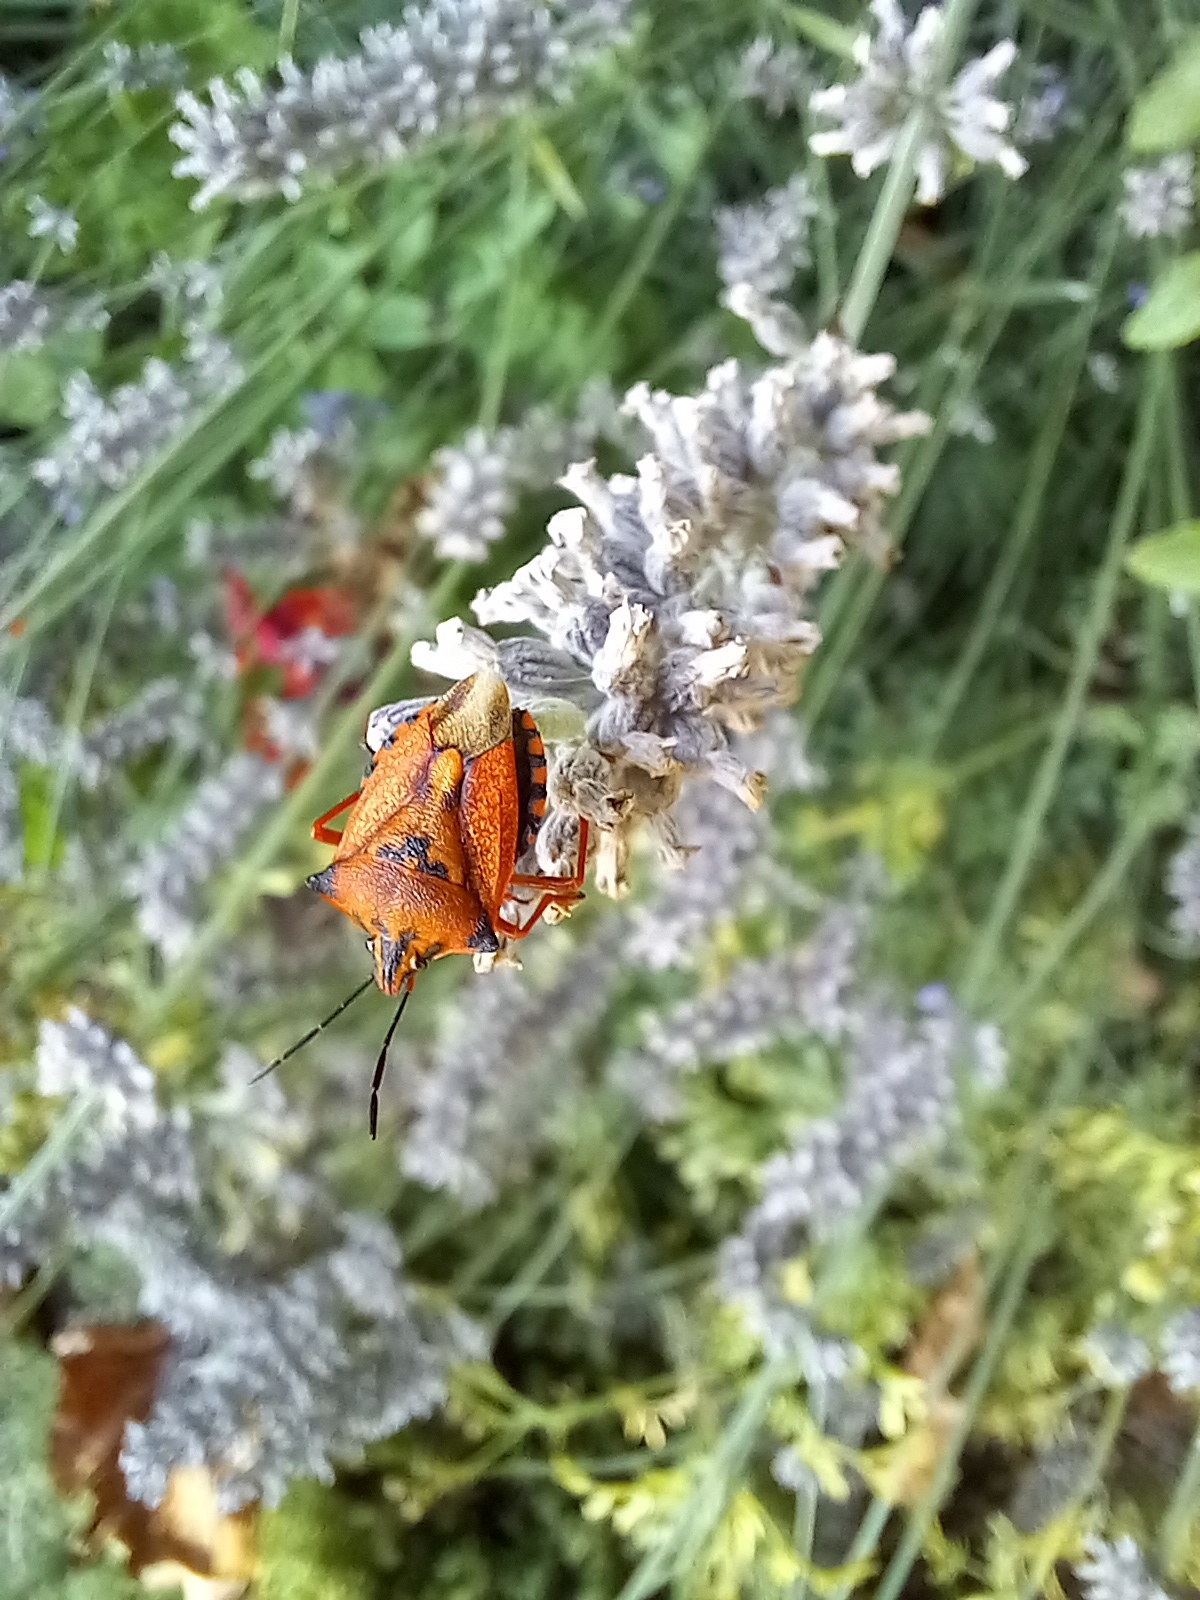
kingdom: Animalia
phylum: Arthropoda
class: Insecta
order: Hemiptera
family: Pentatomidae
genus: Carpocoris
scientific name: Carpocoris mediterraneus
